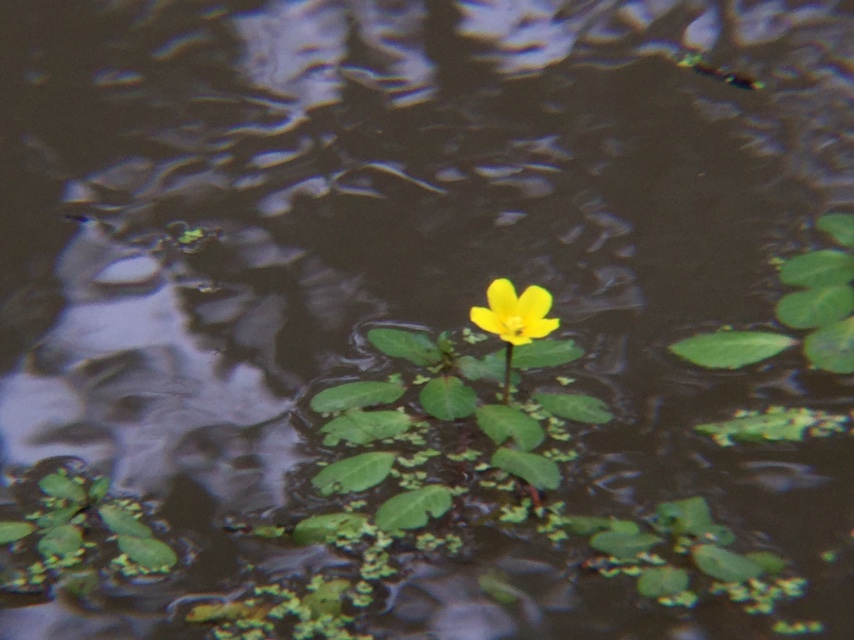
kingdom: Plantae
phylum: Tracheophyta
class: Magnoliopsida
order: Myrtales
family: Onagraceae
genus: Ludwigia
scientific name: Ludwigia peploides
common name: Floating primrose-willow
